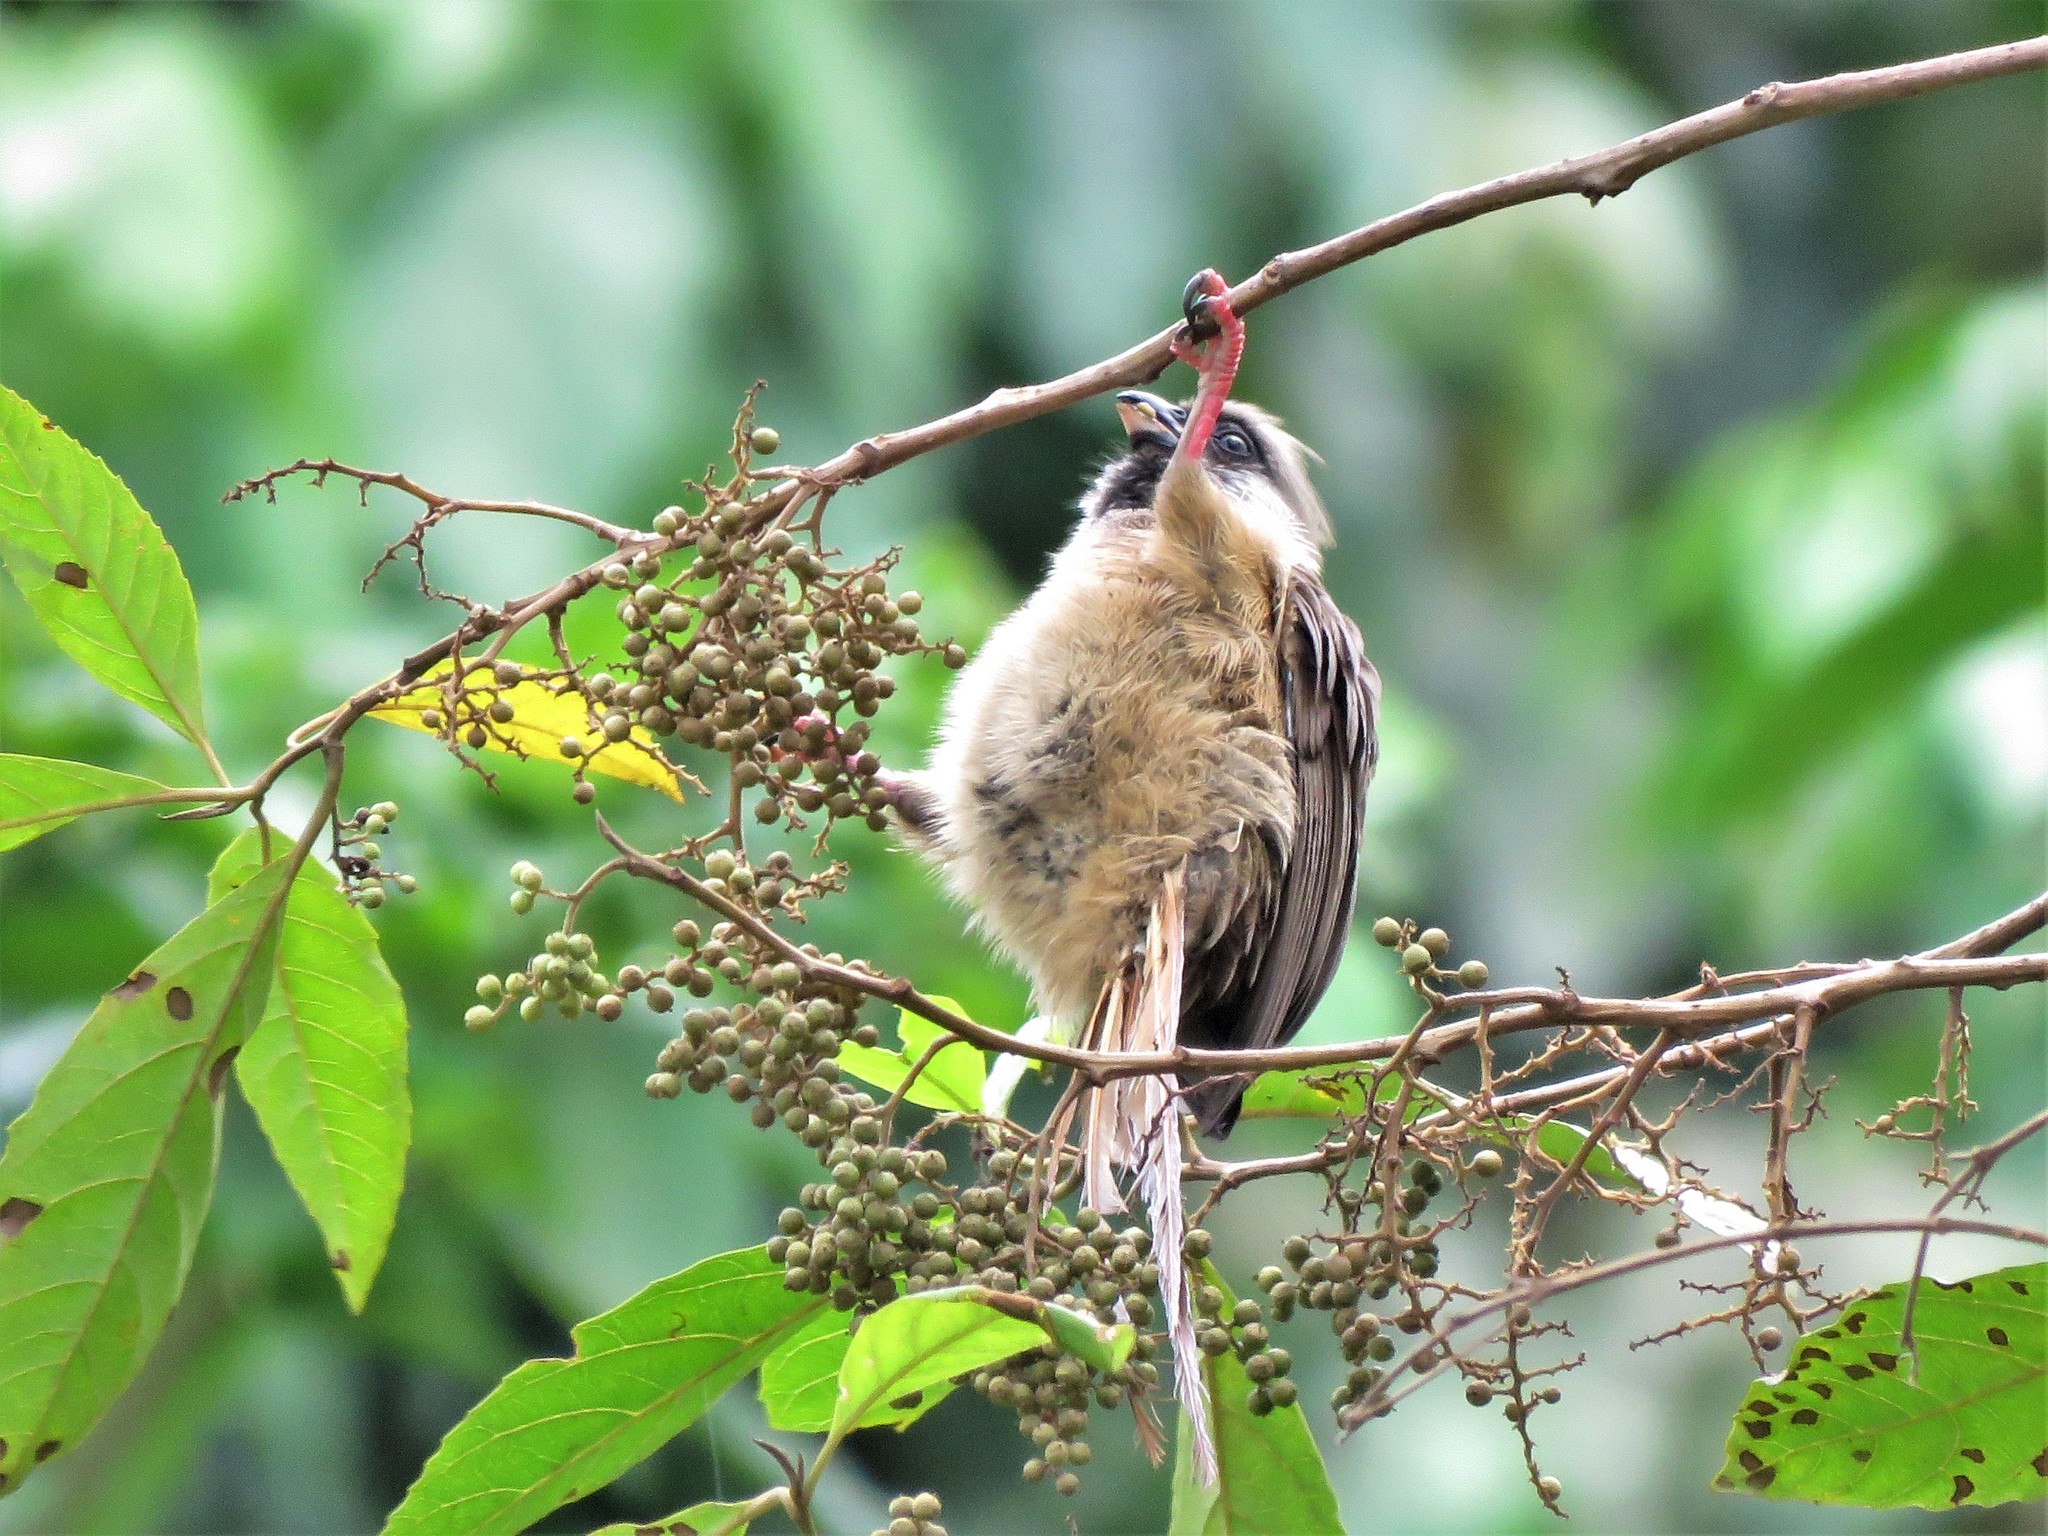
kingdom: Animalia
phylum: Chordata
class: Aves
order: Coliiformes
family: Coliidae
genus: Colius
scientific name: Colius striatus
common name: Speckled mousebird
